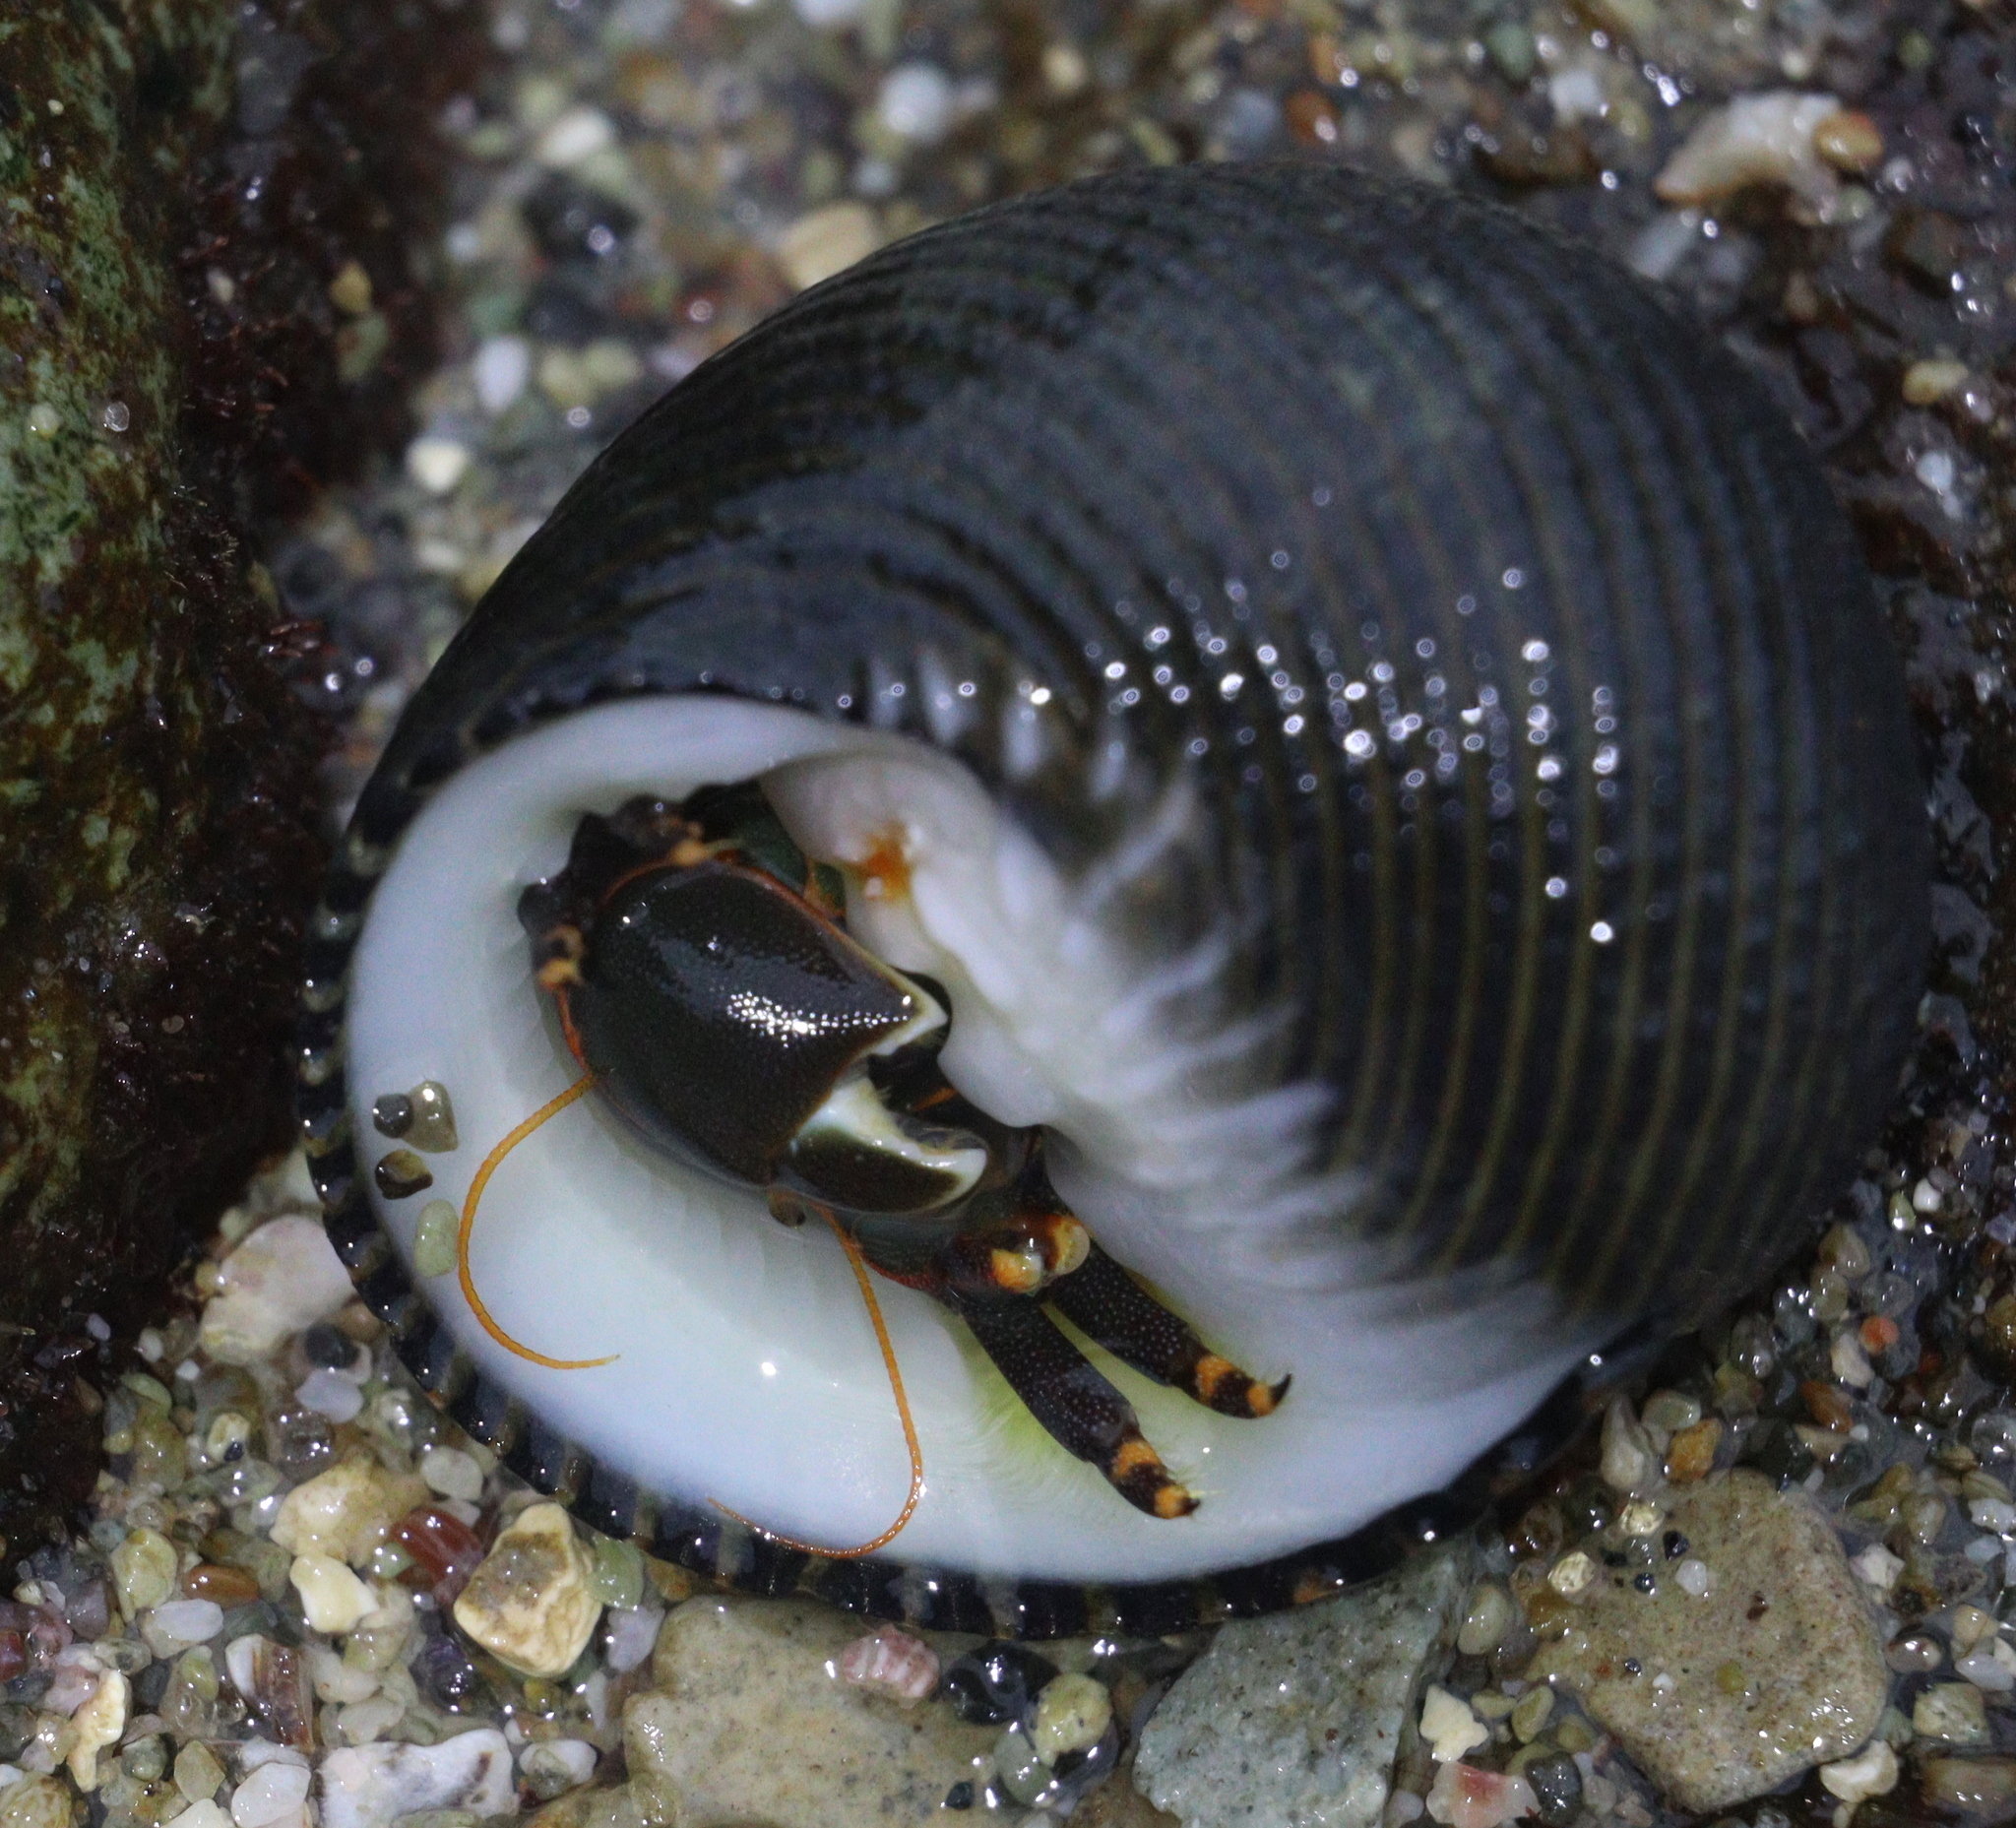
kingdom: Animalia
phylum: Arthropoda
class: Malacostraca
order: Decapoda
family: Diogenidae
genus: Calcinus
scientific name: Calcinus obscurus
